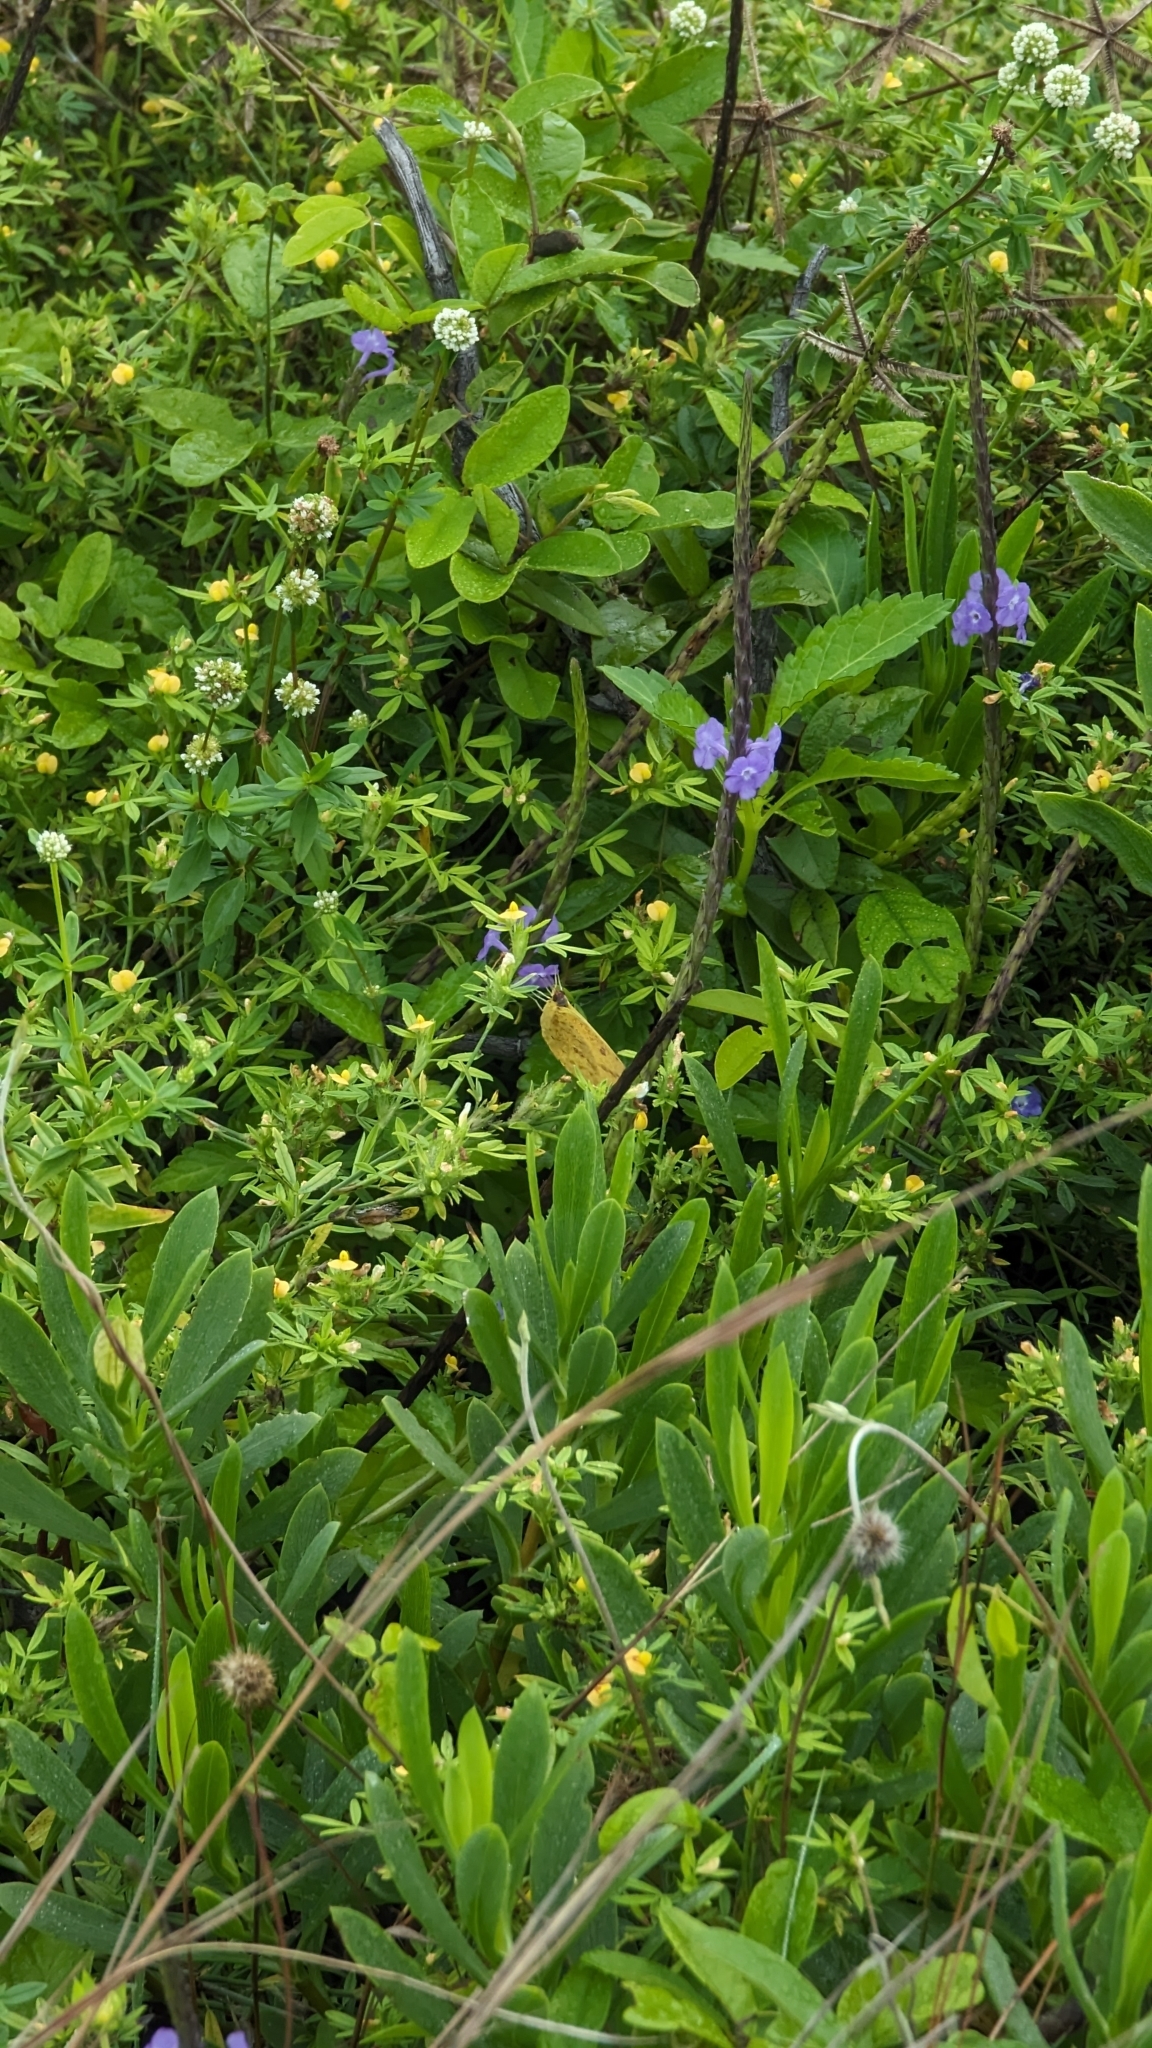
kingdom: Animalia
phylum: Arthropoda
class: Insecta
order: Lepidoptera
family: Pieridae
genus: Phoebis
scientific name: Phoebis agarithe
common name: Large orange sulphur
